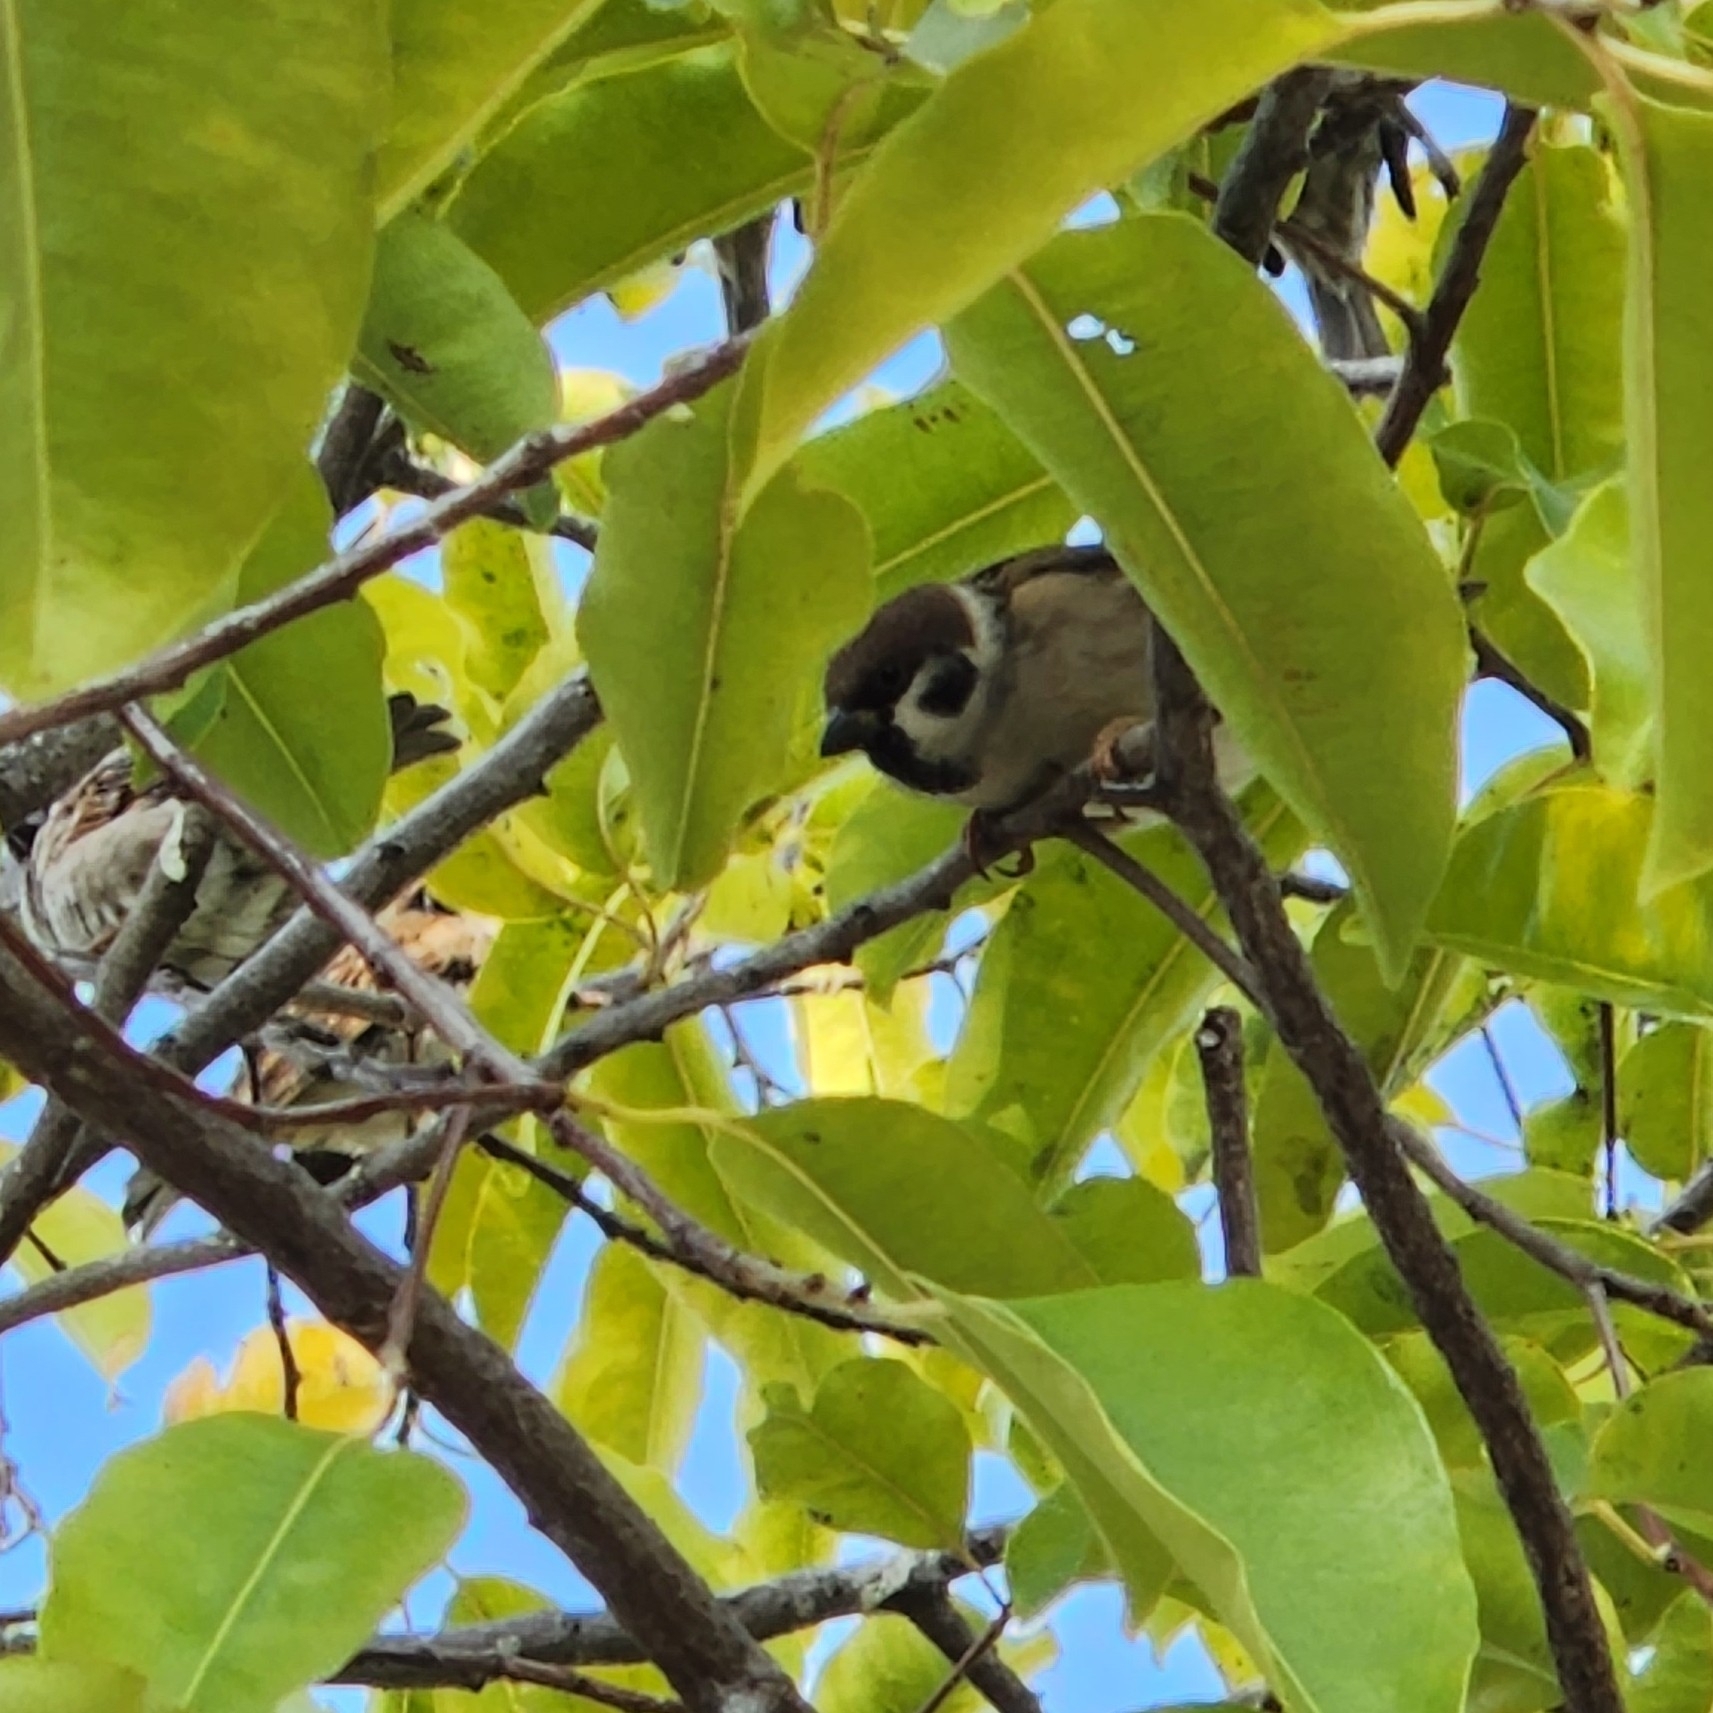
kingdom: Animalia
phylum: Chordata
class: Aves
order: Passeriformes
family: Passeridae
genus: Passer
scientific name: Passer montanus
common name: Eurasian tree sparrow
